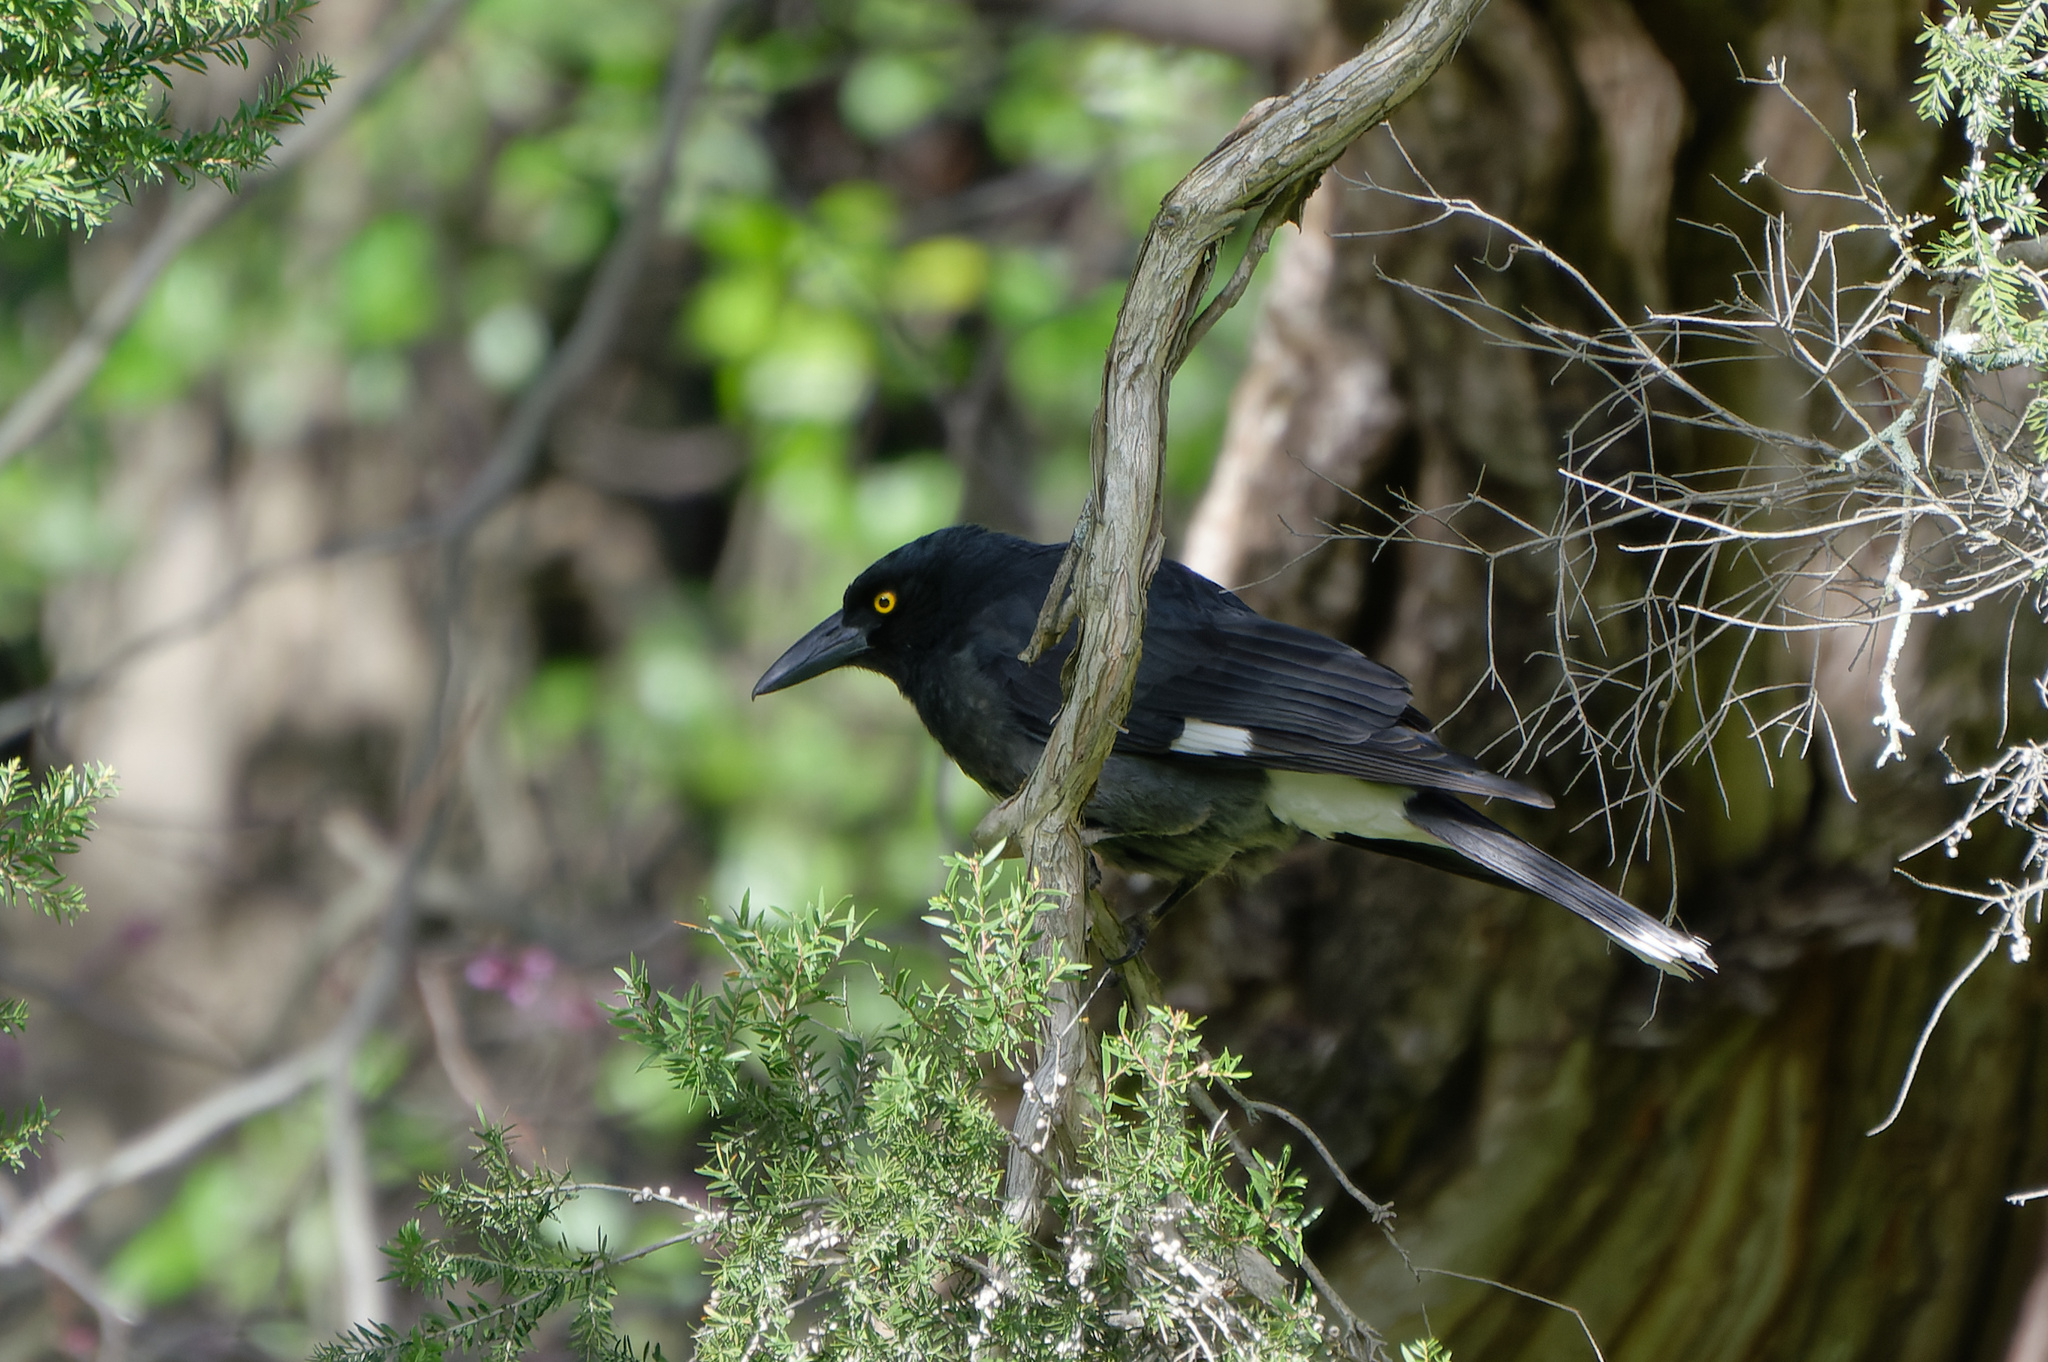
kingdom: Animalia
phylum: Chordata
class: Aves
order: Passeriformes
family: Cracticidae
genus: Strepera
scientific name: Strepera graculina
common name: Pied currawong
